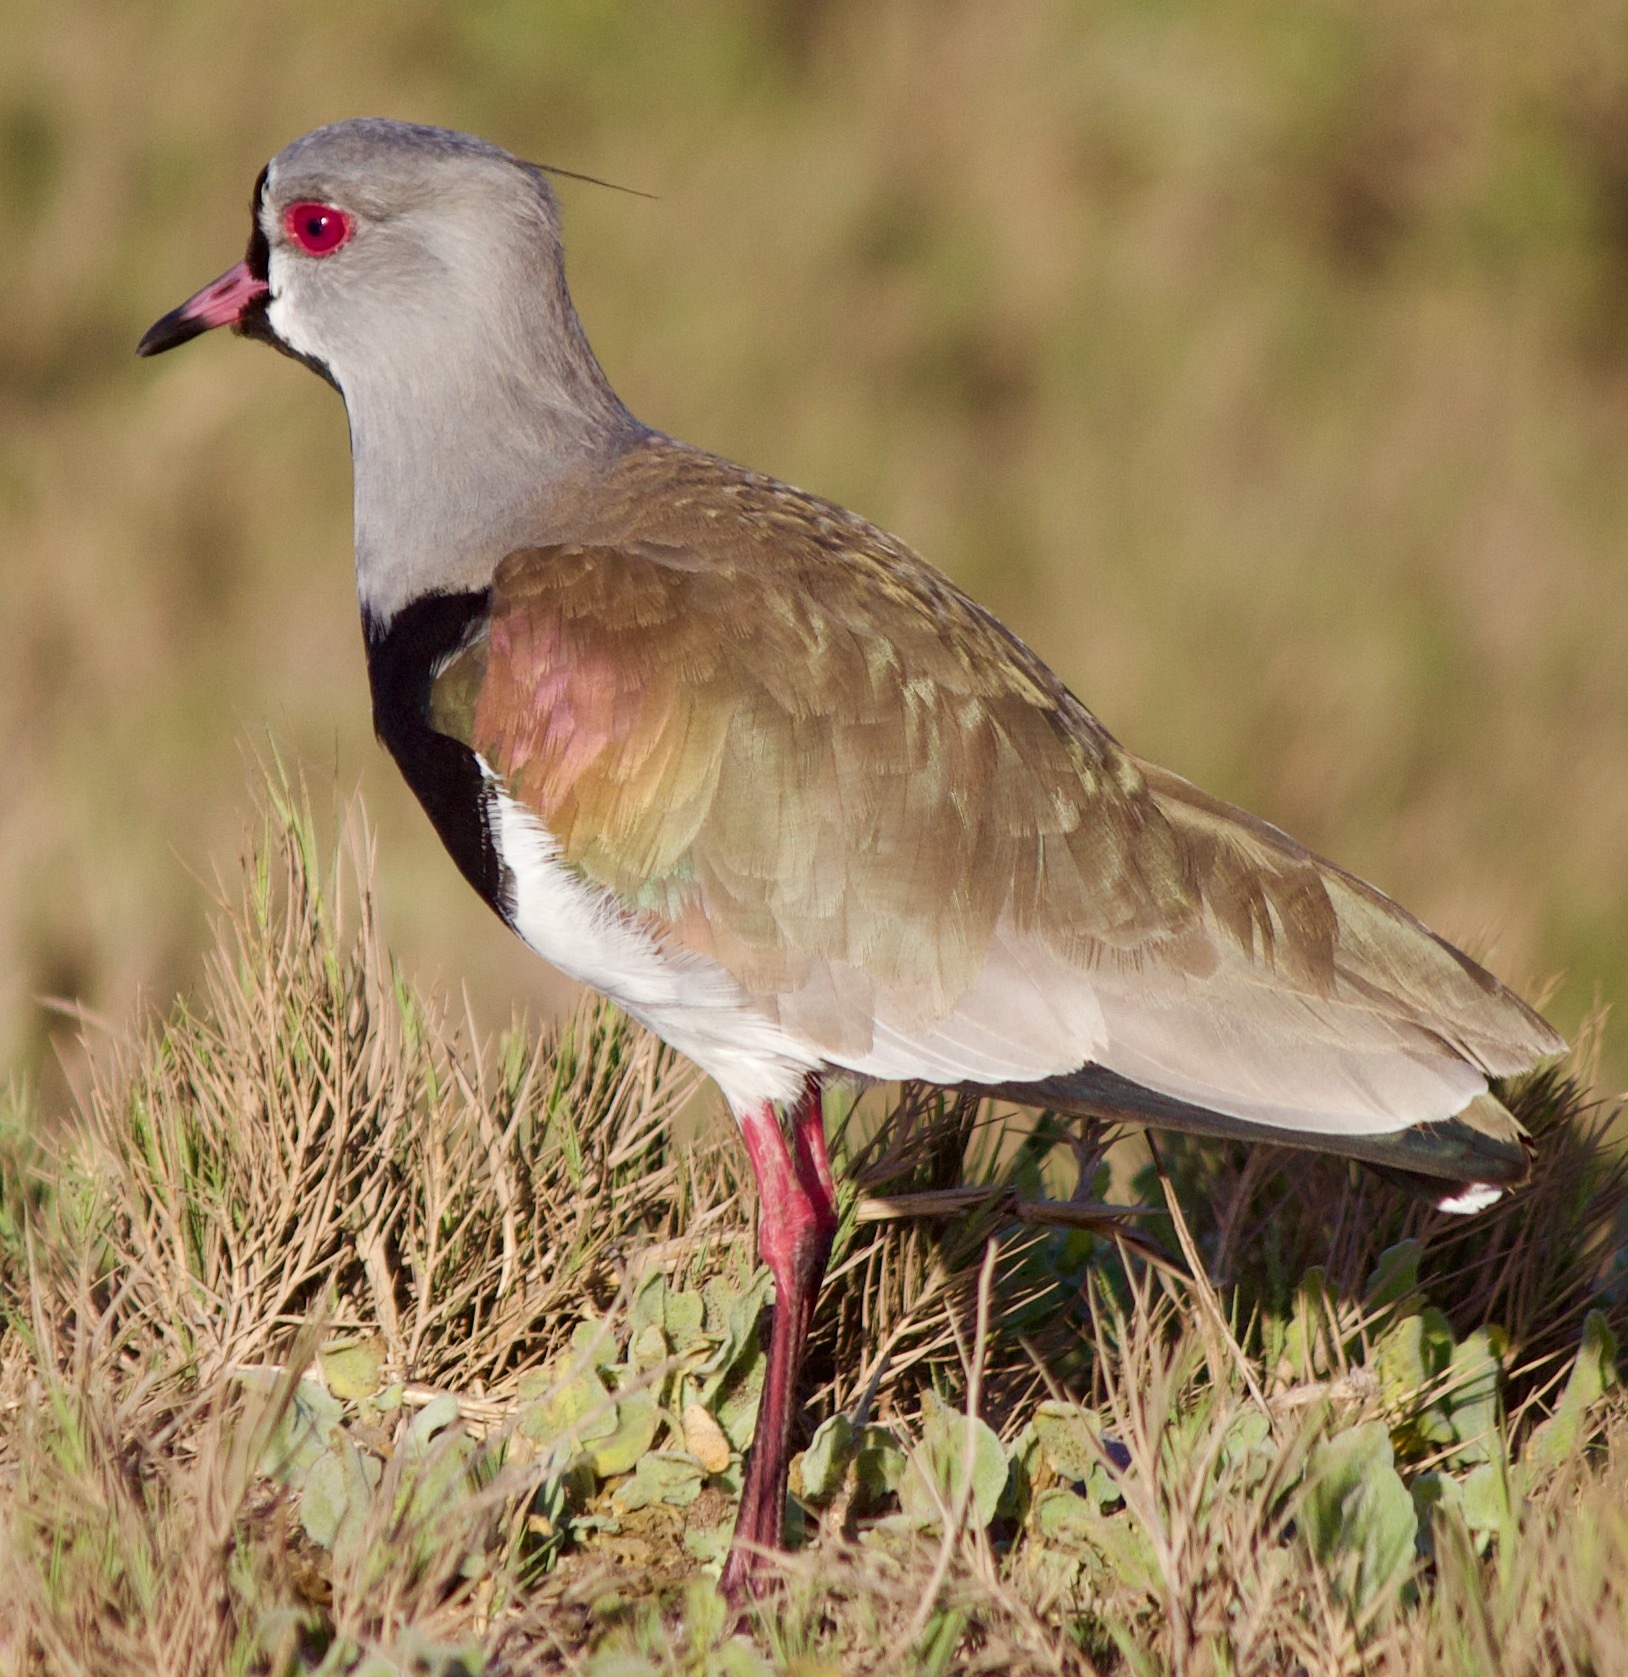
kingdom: Animalia
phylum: Chordata
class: Aves
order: Charadriiformes
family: Charadriidae
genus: Vanellus
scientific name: Vanellus chilensis
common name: Southern lapwing
